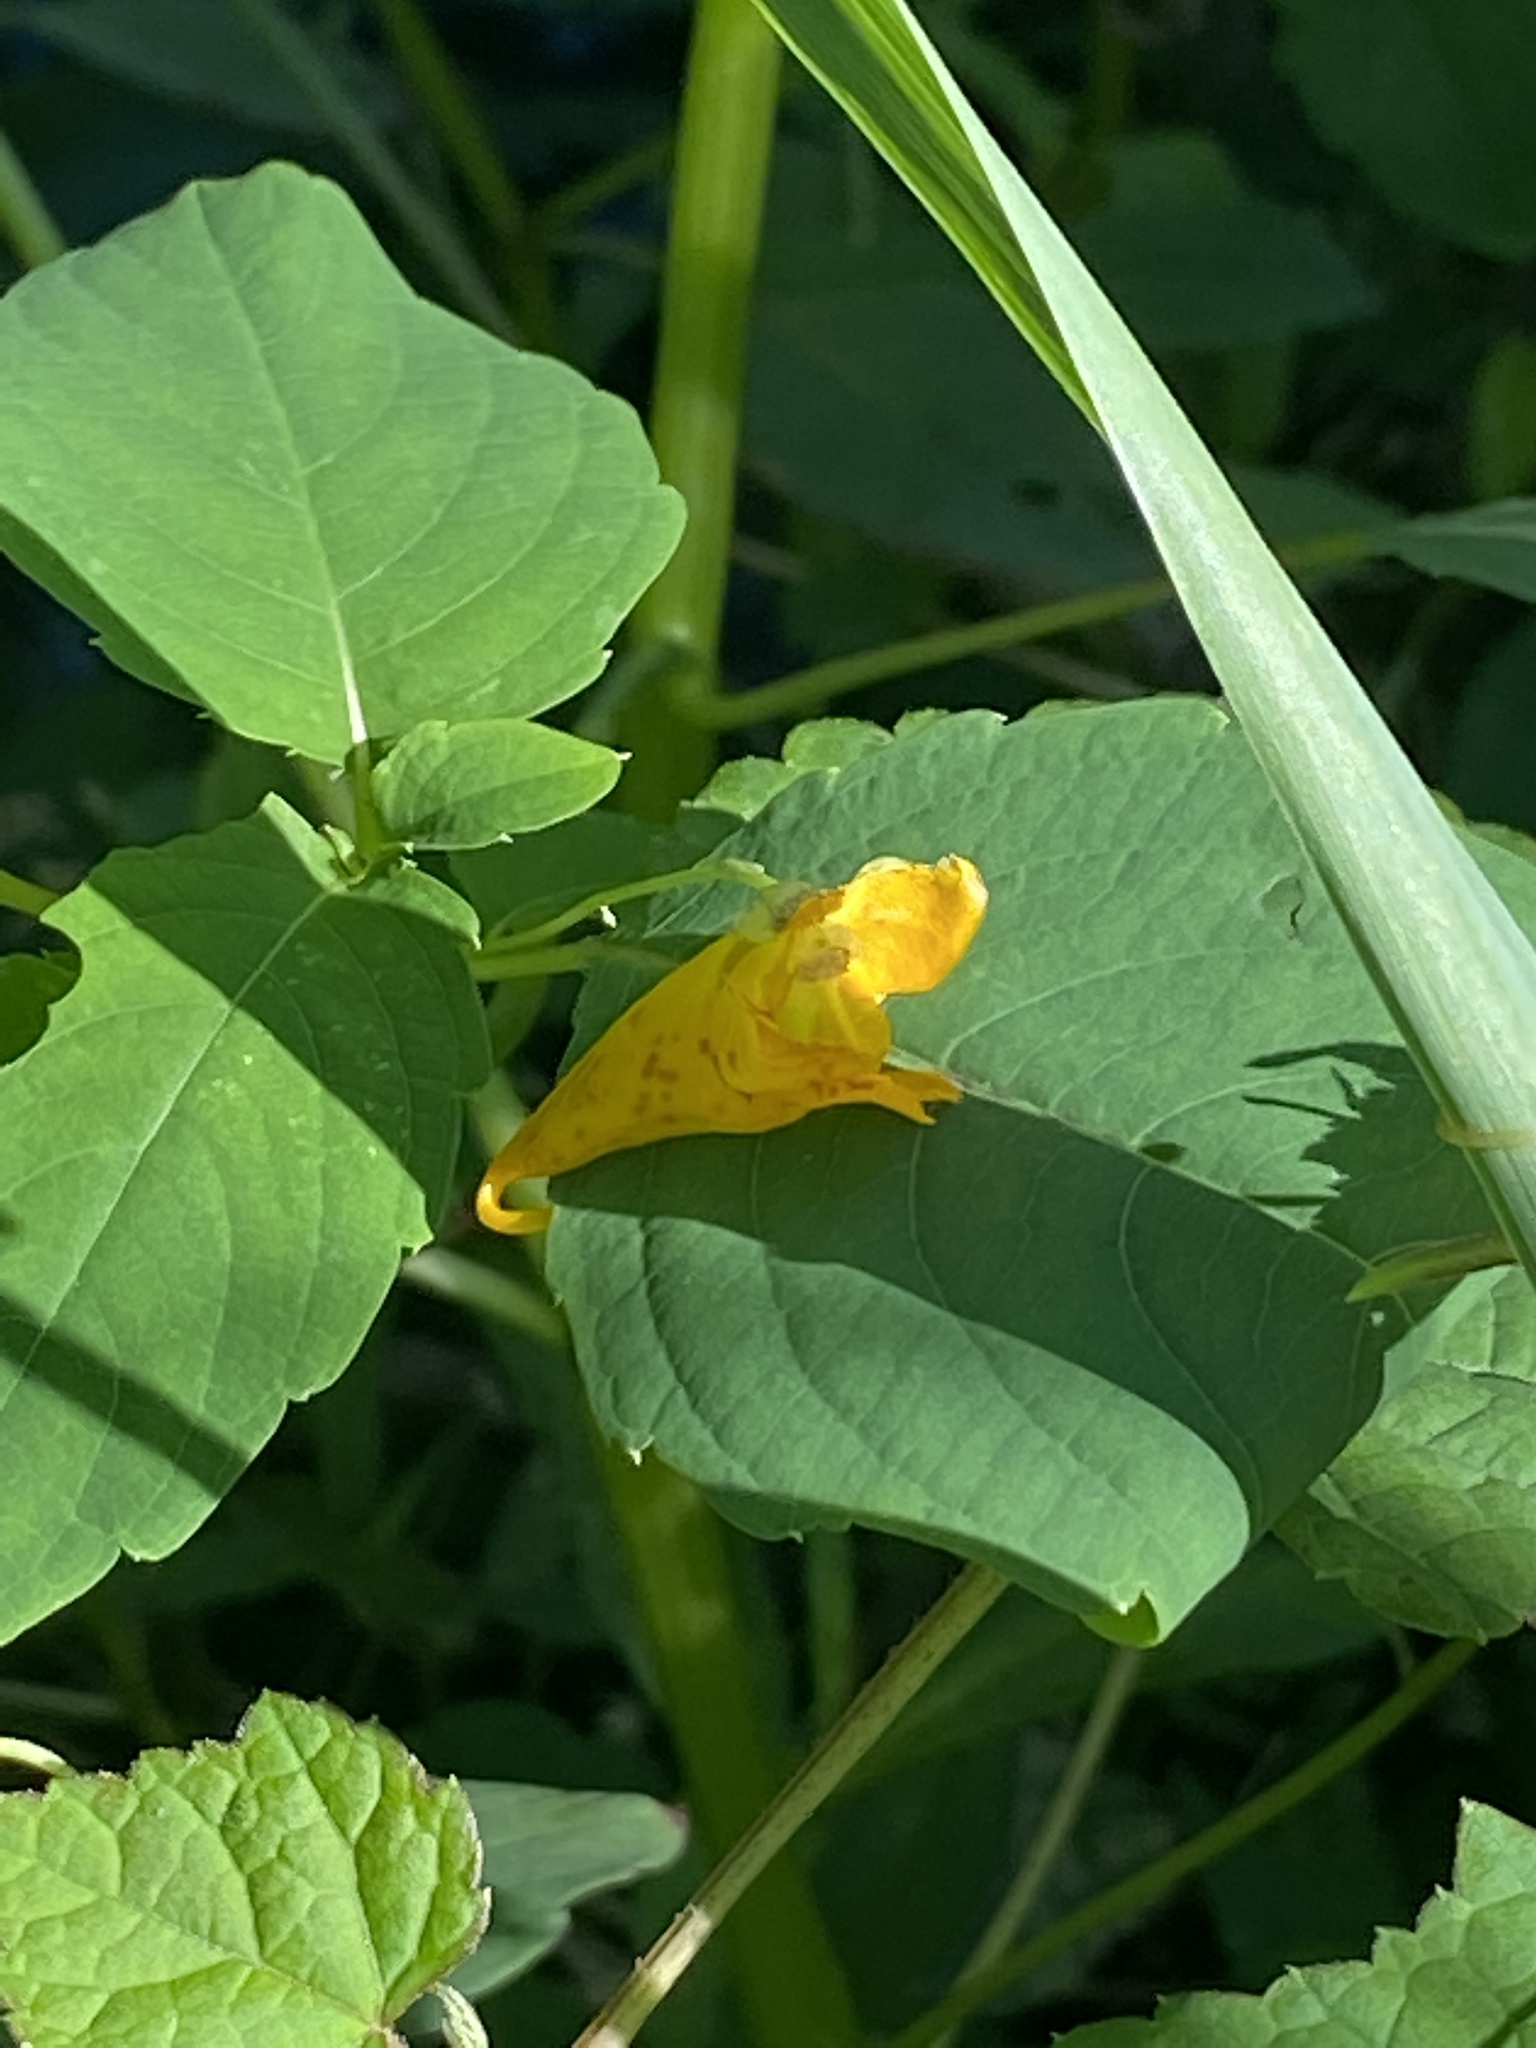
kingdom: Plantae
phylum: Tracheophyta
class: Magnoliopsida
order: Ericales
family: Balsaminaceae
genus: Impatiens
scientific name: Impatiens capensis
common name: Orange balsam
